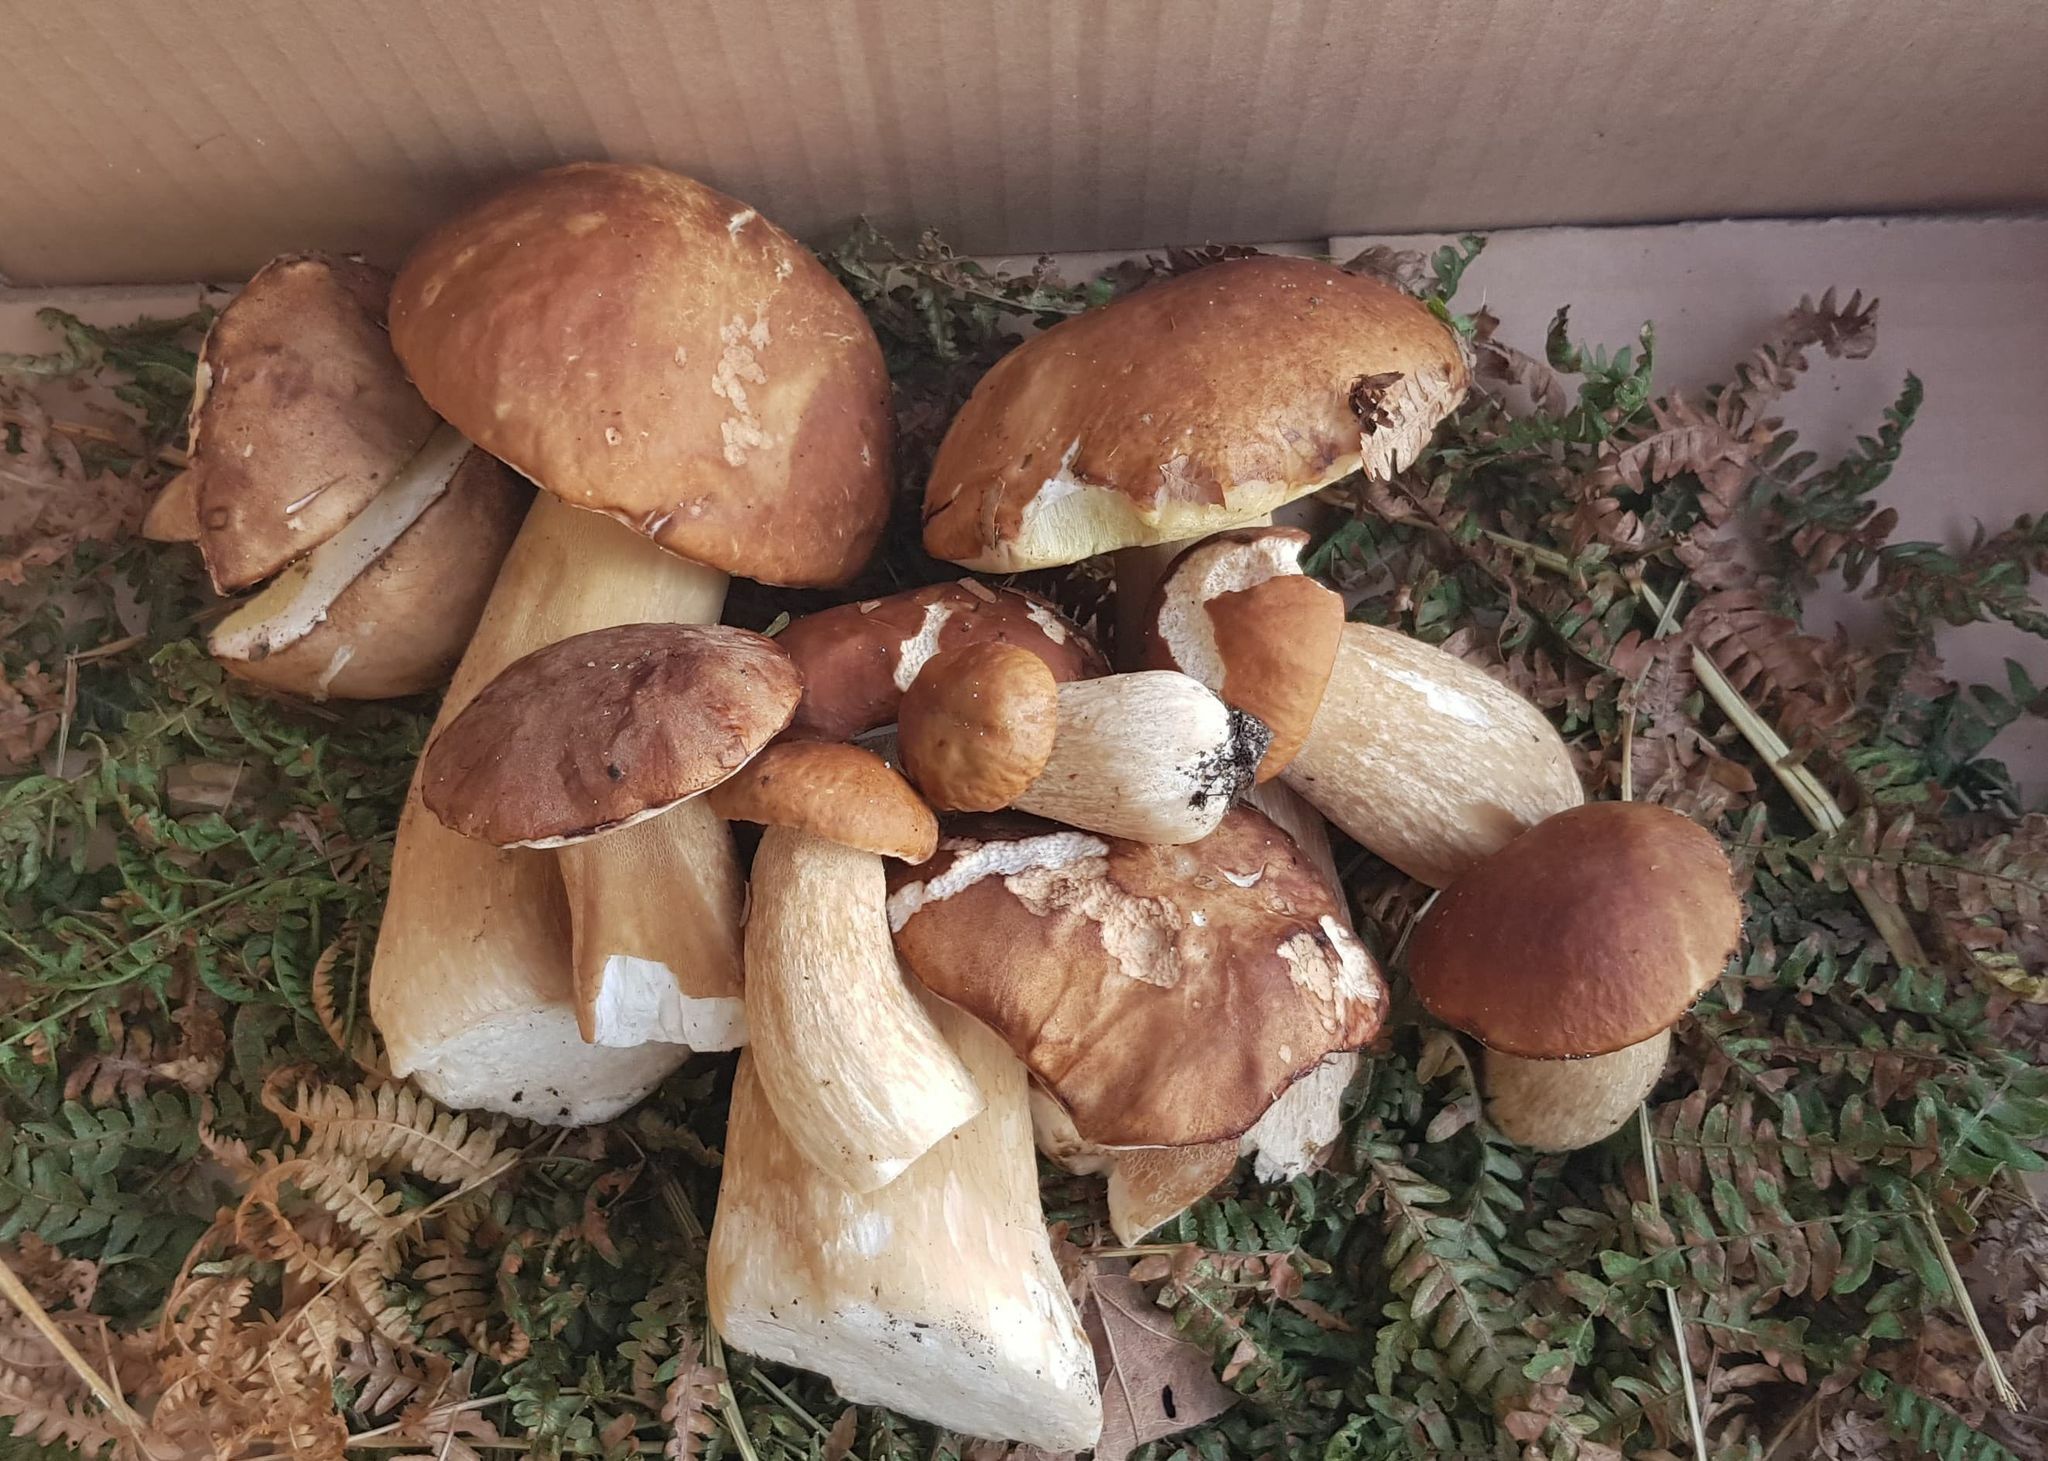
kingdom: Fungi
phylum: Basidiomycota
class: Agaricomycetes
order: Boletales
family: Boletaceae
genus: Boletus
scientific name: Boletus edulis
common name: Cep
